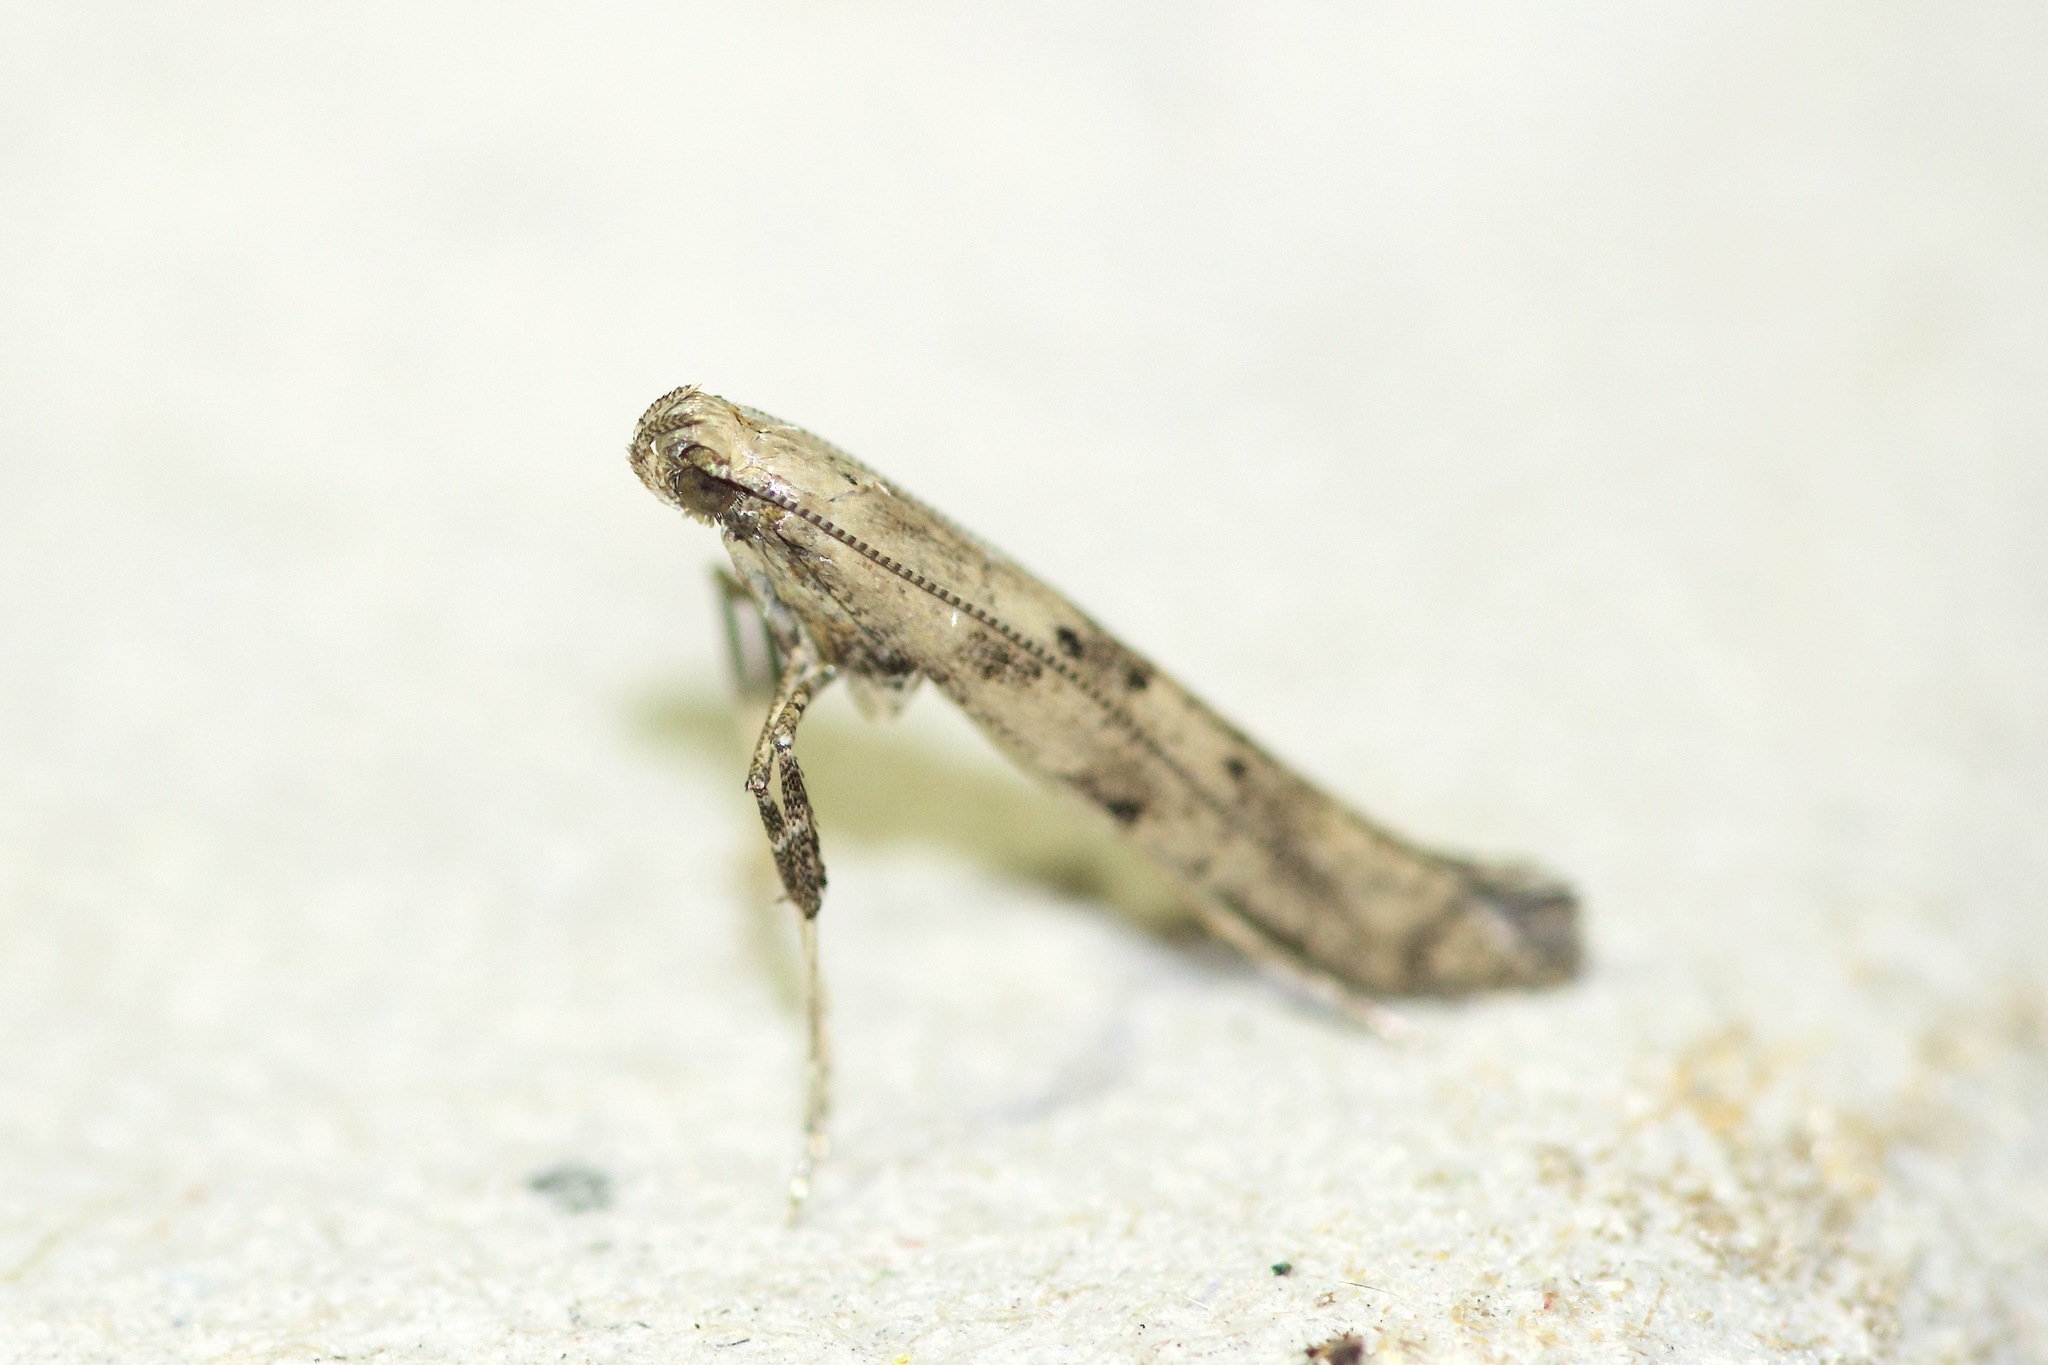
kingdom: Animalia
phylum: Arthropoda
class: Insecta
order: Lepidoptera
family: Gracillariidae
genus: Caloptilia
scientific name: Caloptilia populetorum
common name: Clouded slender
